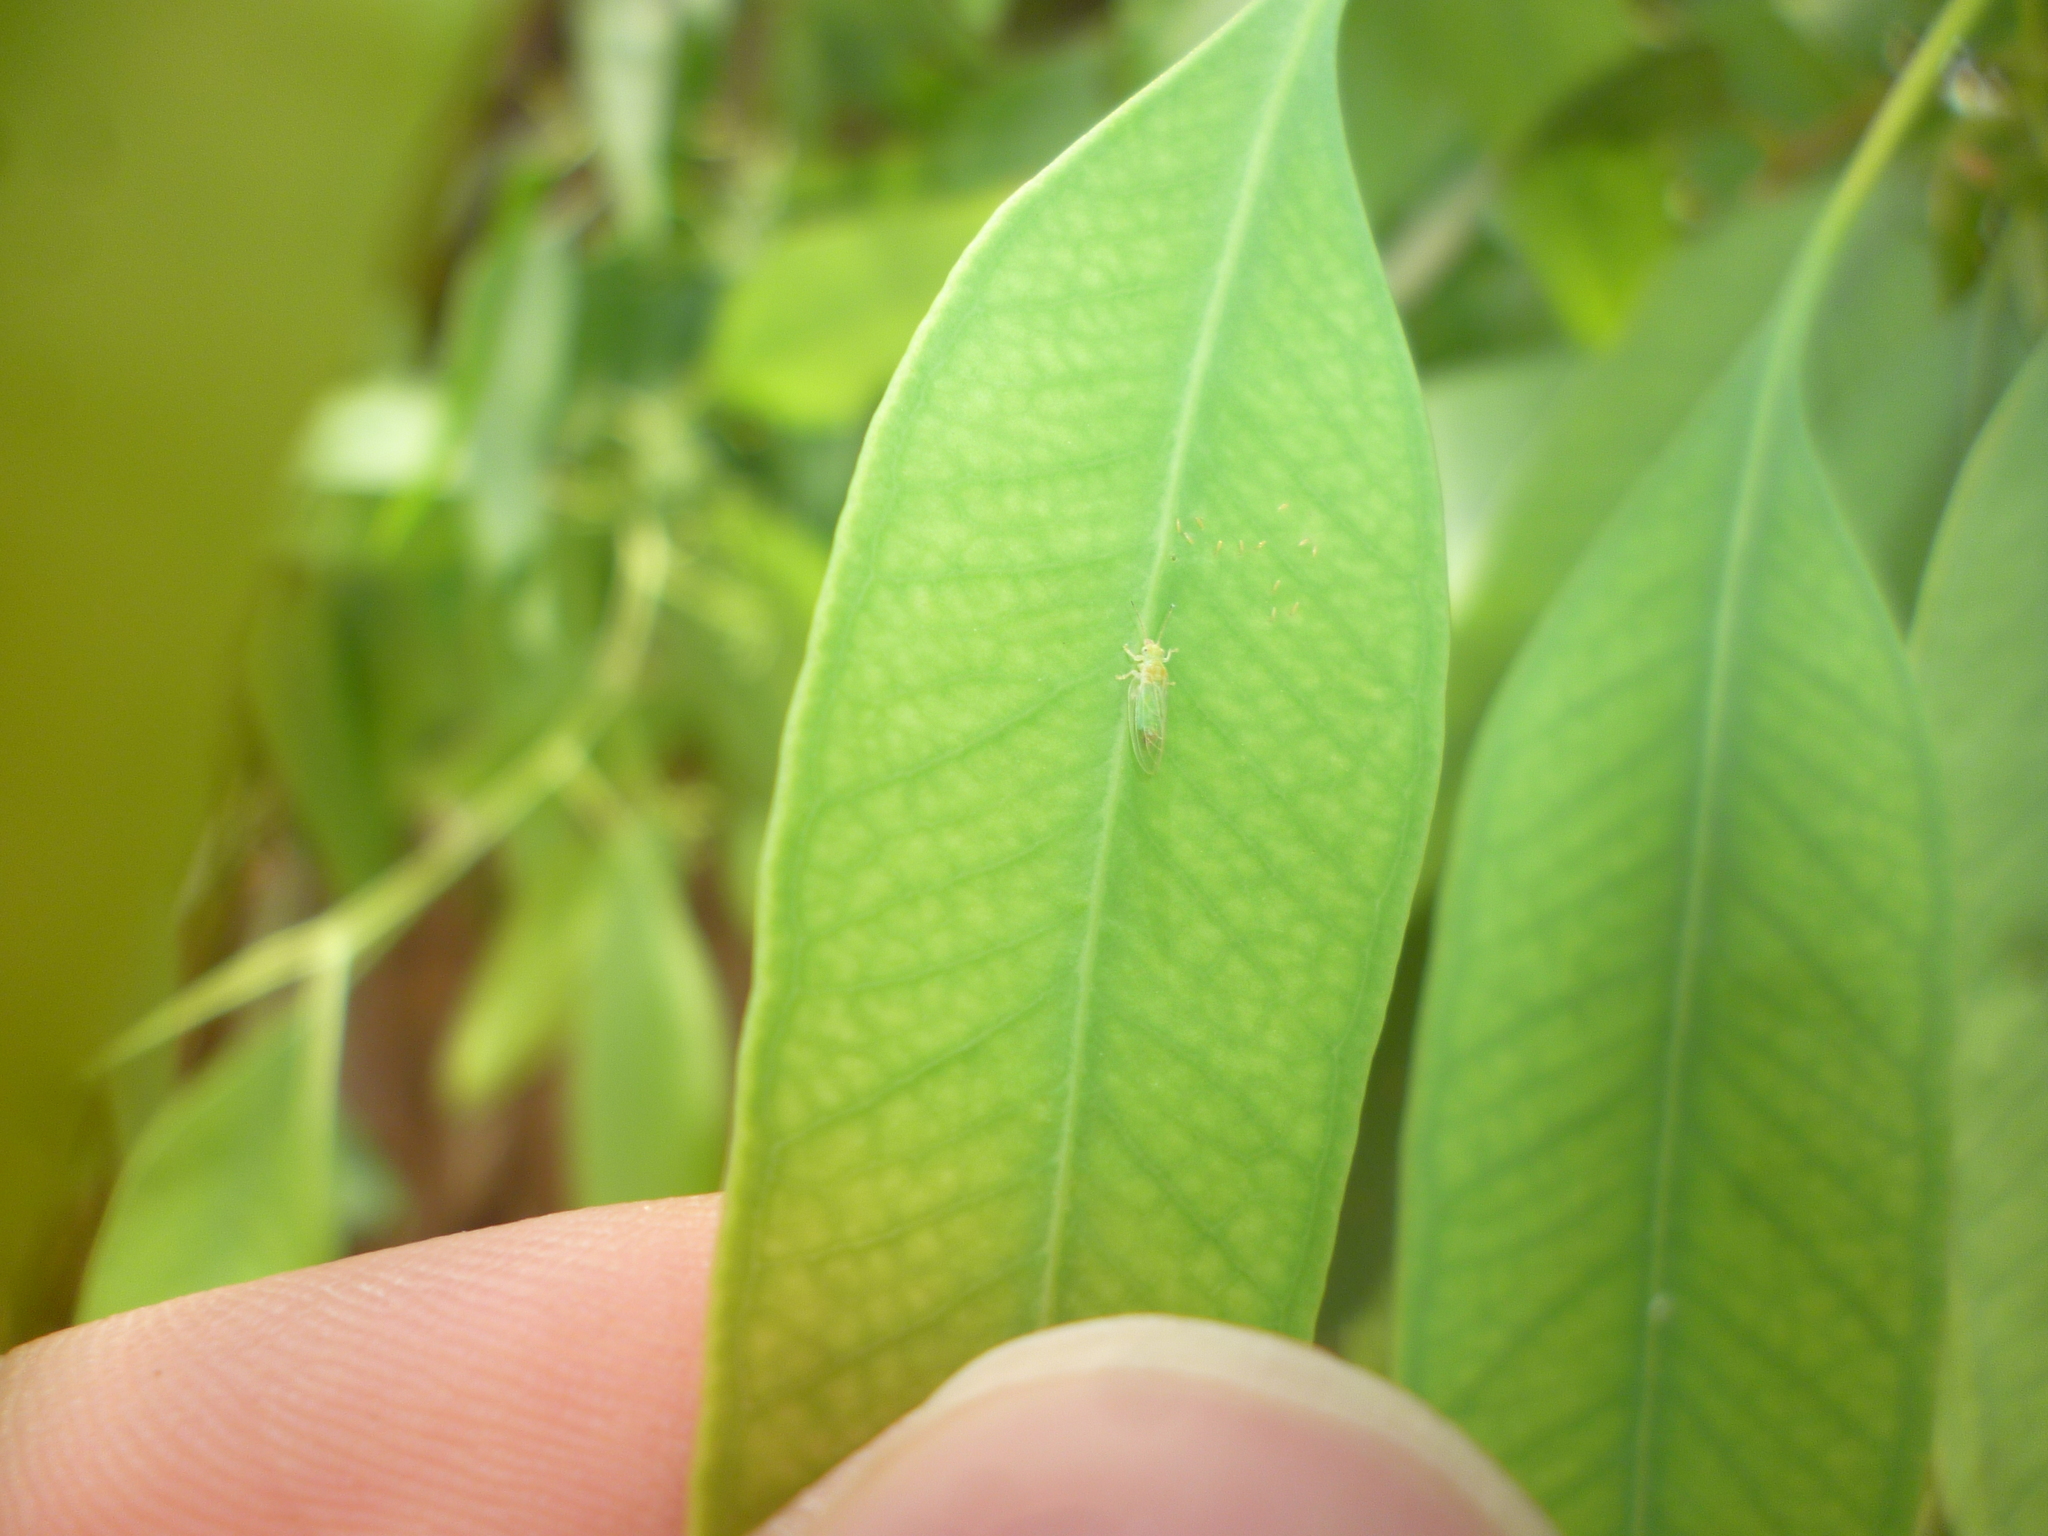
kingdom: Animalia
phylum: Arthropoda
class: Insecta
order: Hemiptera
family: Aphalaridae
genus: Glycaspis
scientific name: Glycaspis brimblecombei
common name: Red gum lerp psyllid
